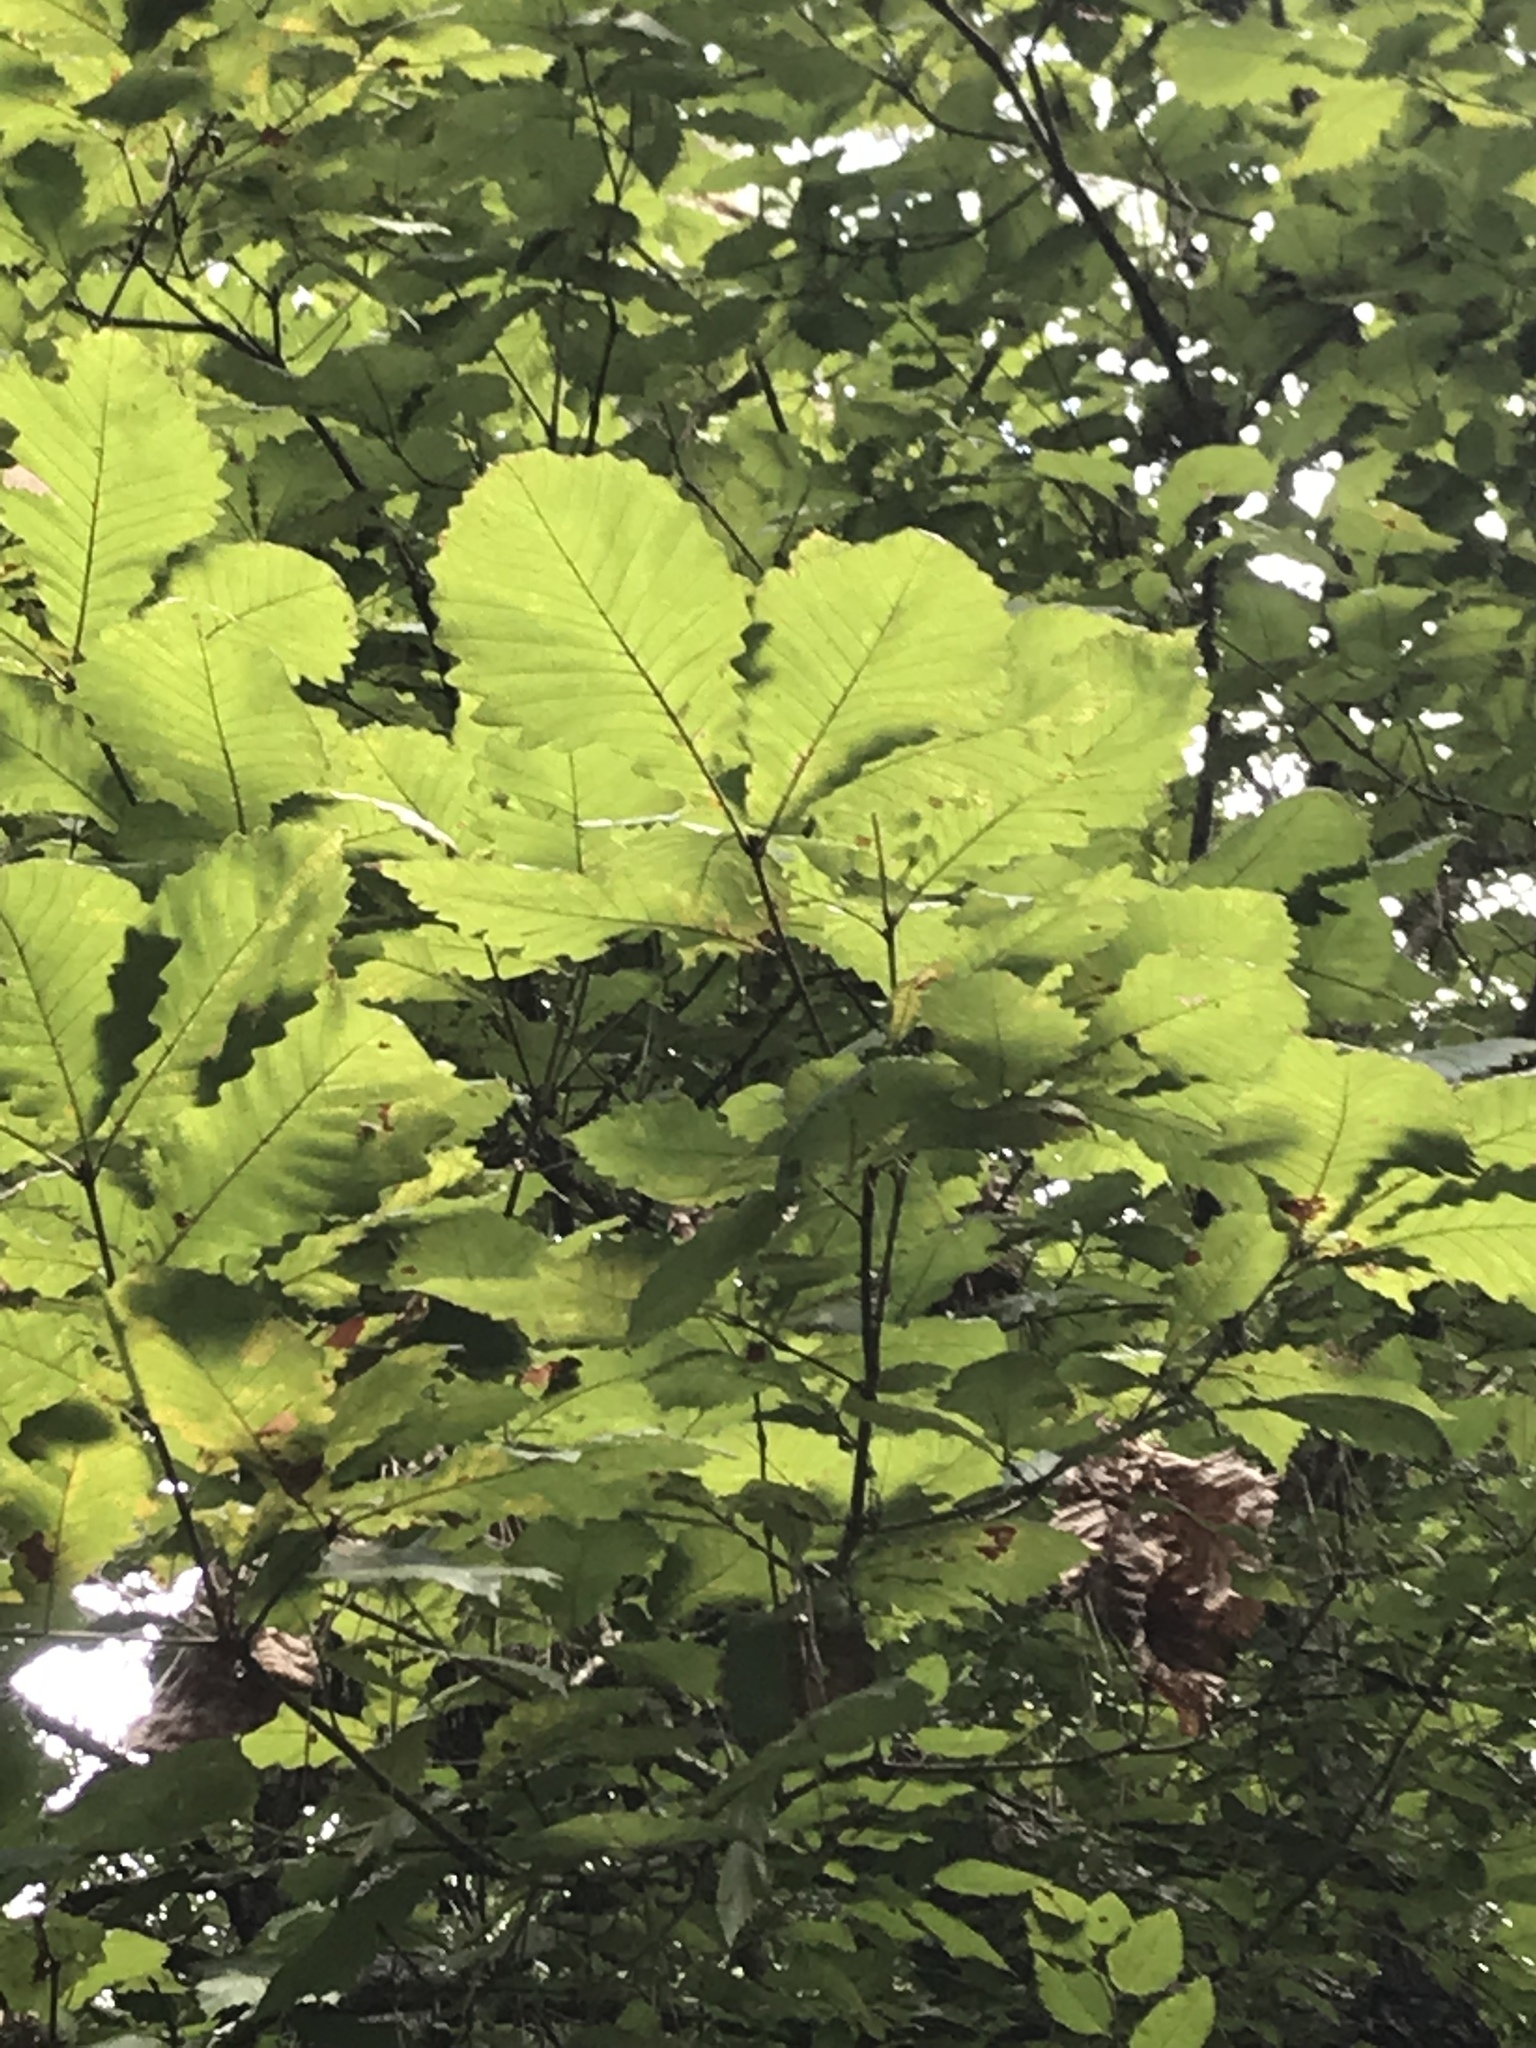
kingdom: Plantae
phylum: Tracheophyta
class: Magnoliopsida
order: Fagales
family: Fagaceae
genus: Quercus
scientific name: Quercus michauxii
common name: Swamp chestnut oak
